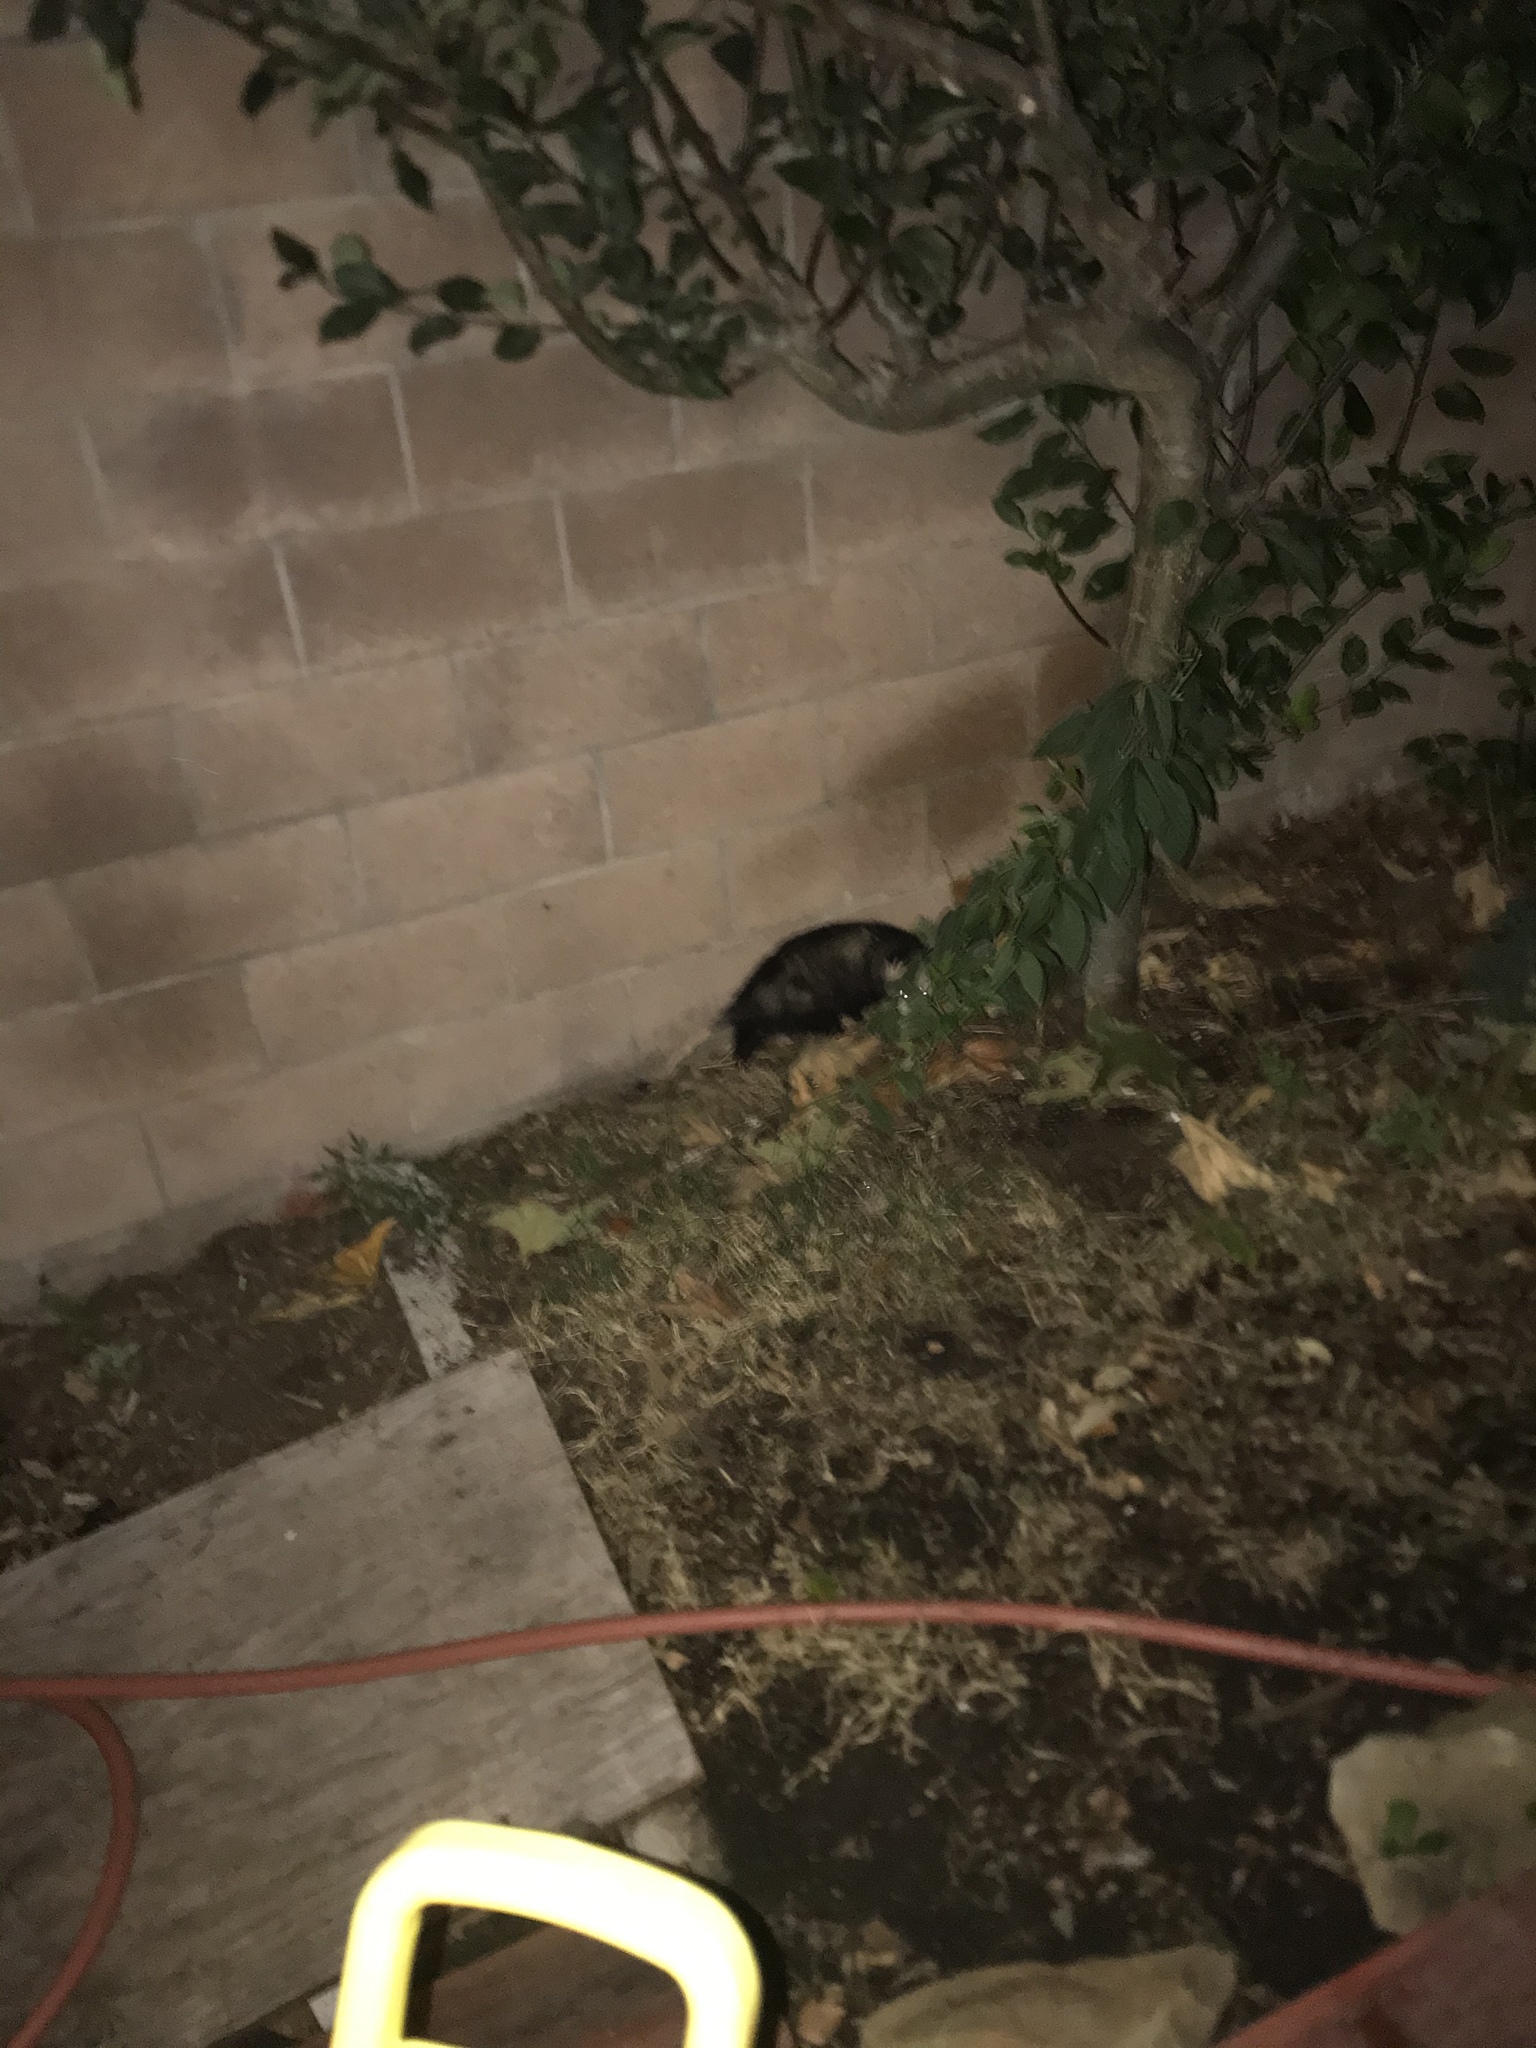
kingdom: Animalia
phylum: Chordata
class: Mammalia
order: Didelphimorphia
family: Didelphidae
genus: Didelphis
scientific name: Didelphis virginiana
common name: Virginia opossum
